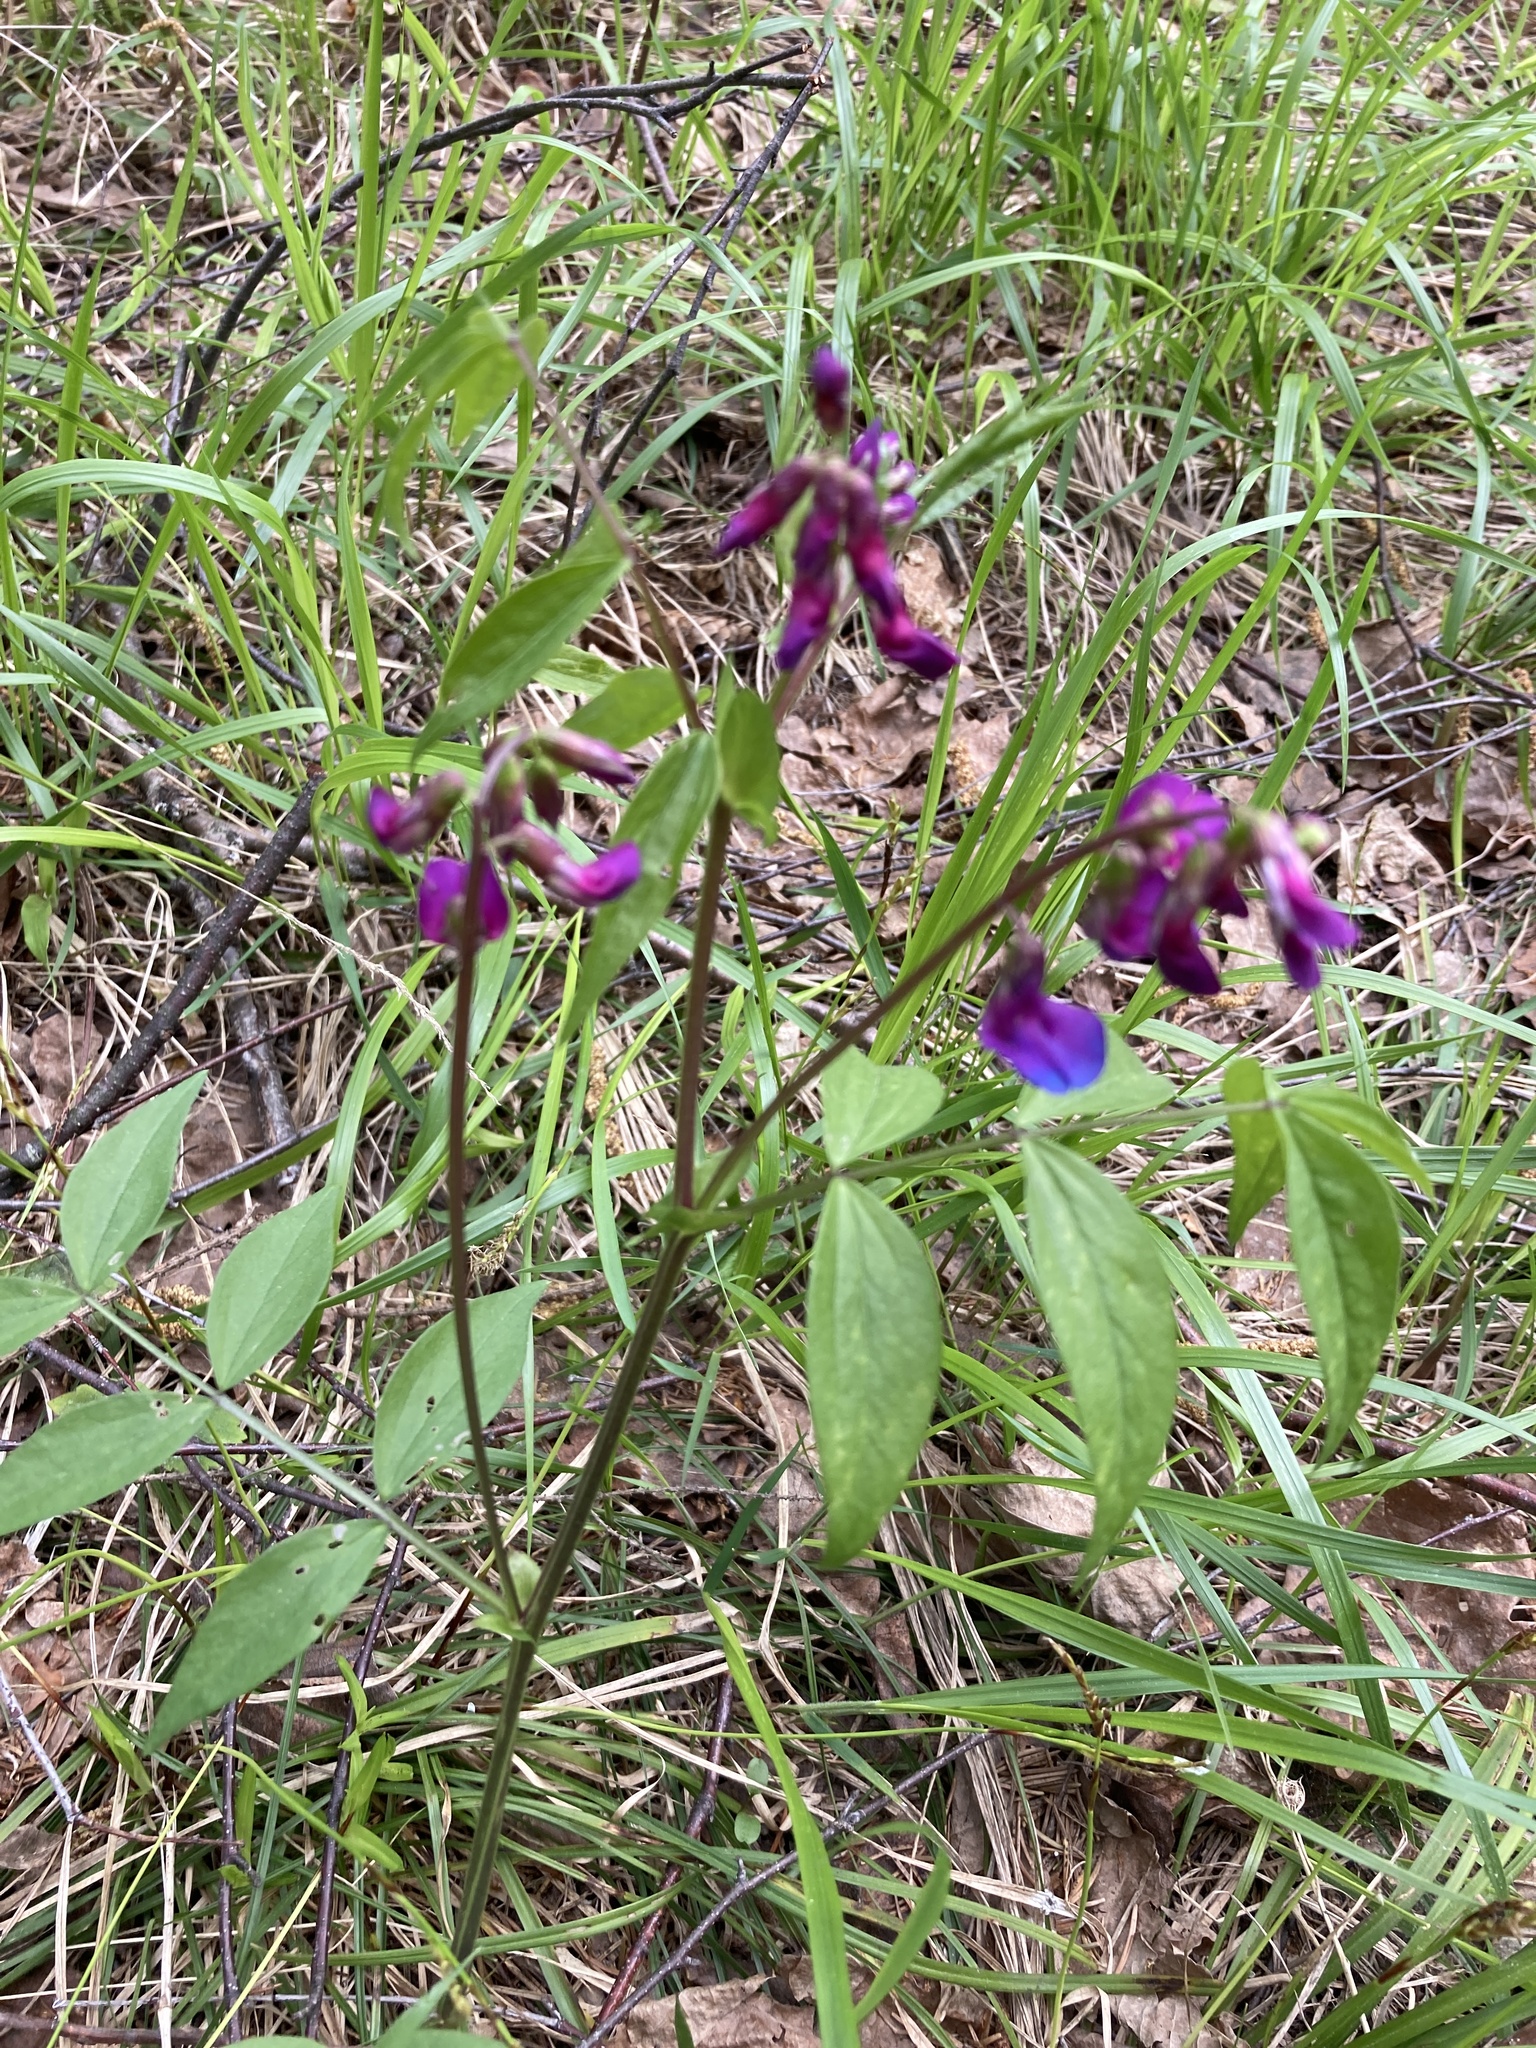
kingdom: Plantae
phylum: Tracheophyta
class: Magnoliopsida
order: Fabales
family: Fabaceae
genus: Lathyrus
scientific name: Lathyrus vernus
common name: Spring pea
